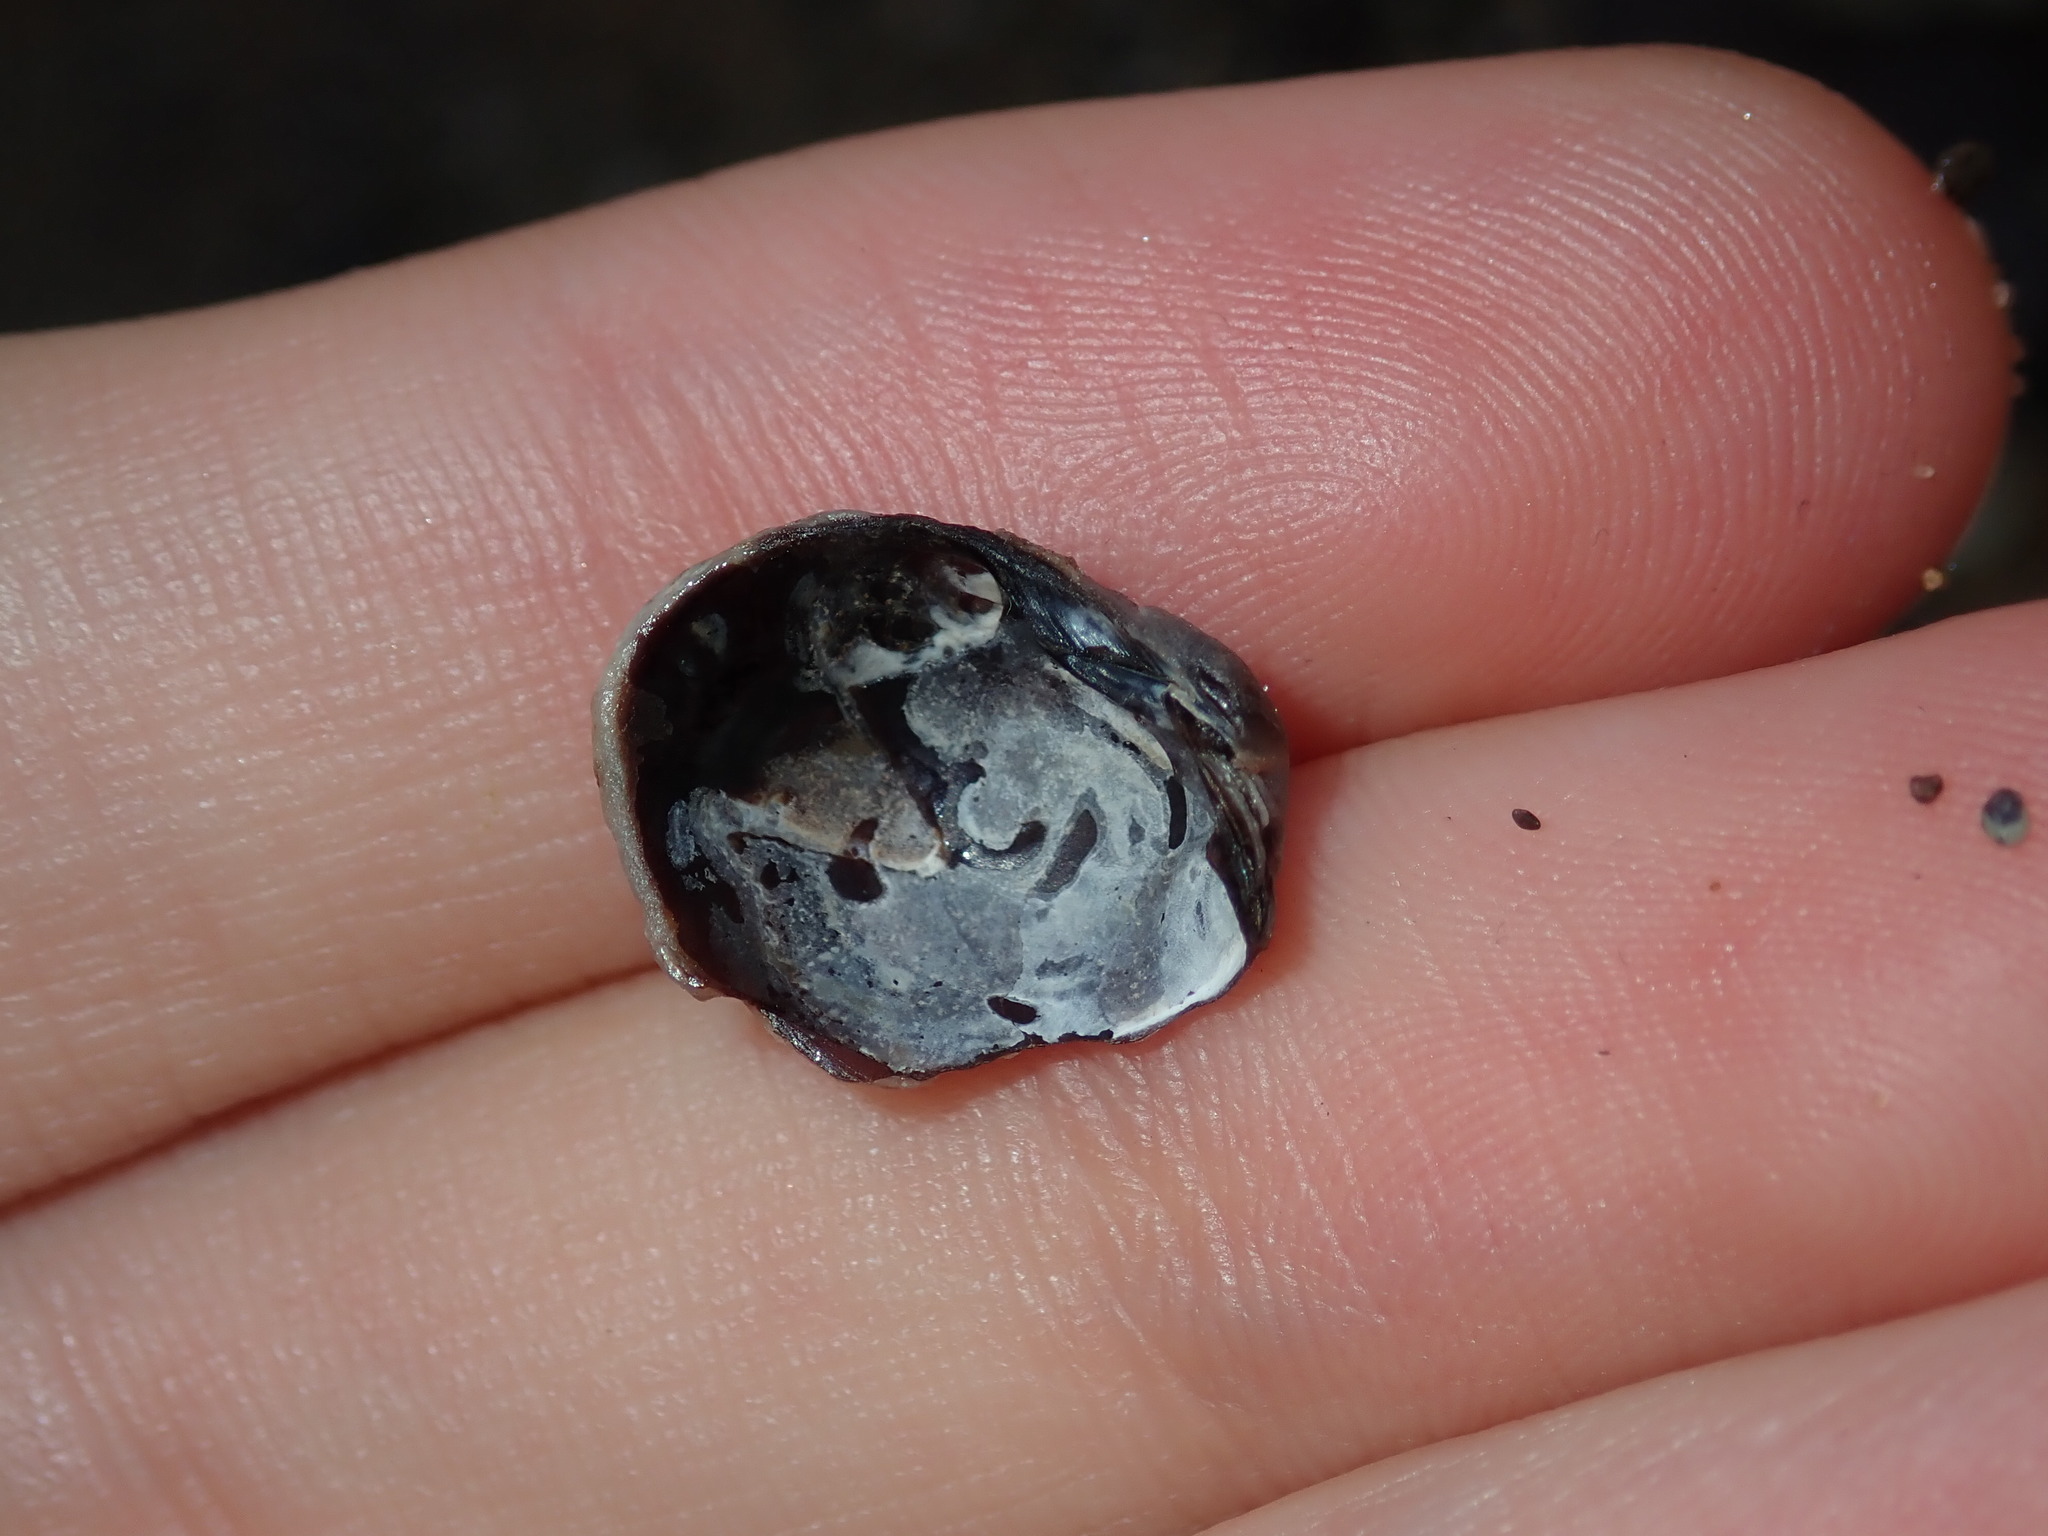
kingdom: Animalia
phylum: Mollusca
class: Bivalvia
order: Venerida
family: Veneridae
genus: Irus
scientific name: Irus cumingii
